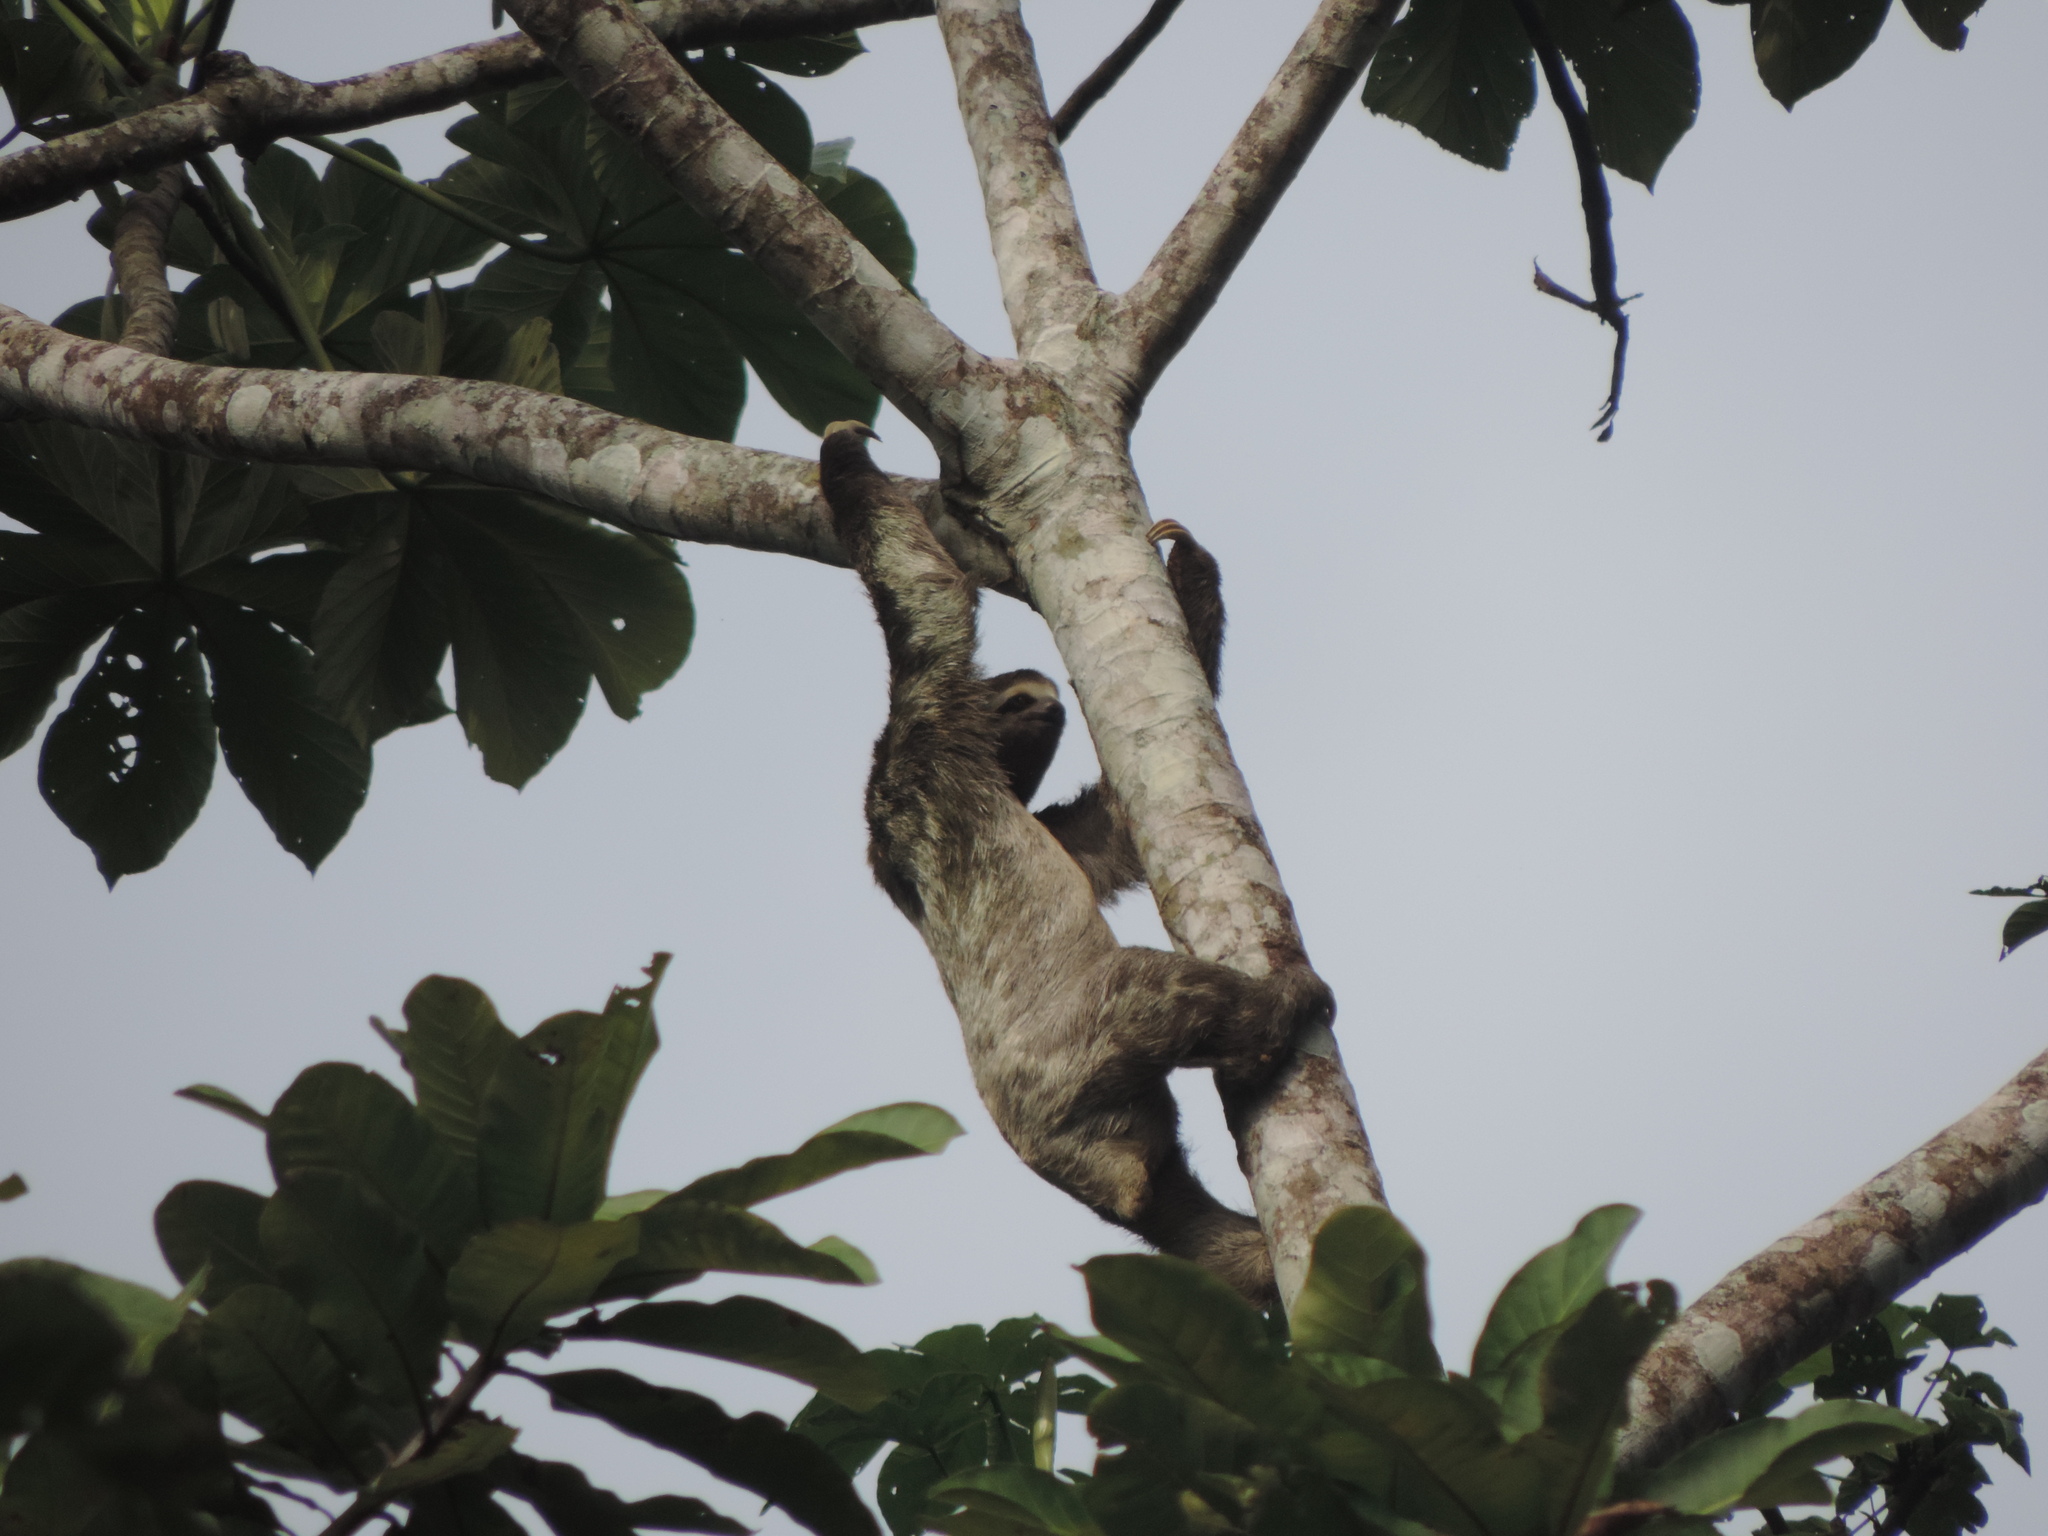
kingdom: Animalia
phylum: Chordata
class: Mammalia
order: Pilosa
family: Bradypodidae
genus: Bradypus
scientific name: Bradypus variegatus
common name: Brown-throated three-toed sloth
